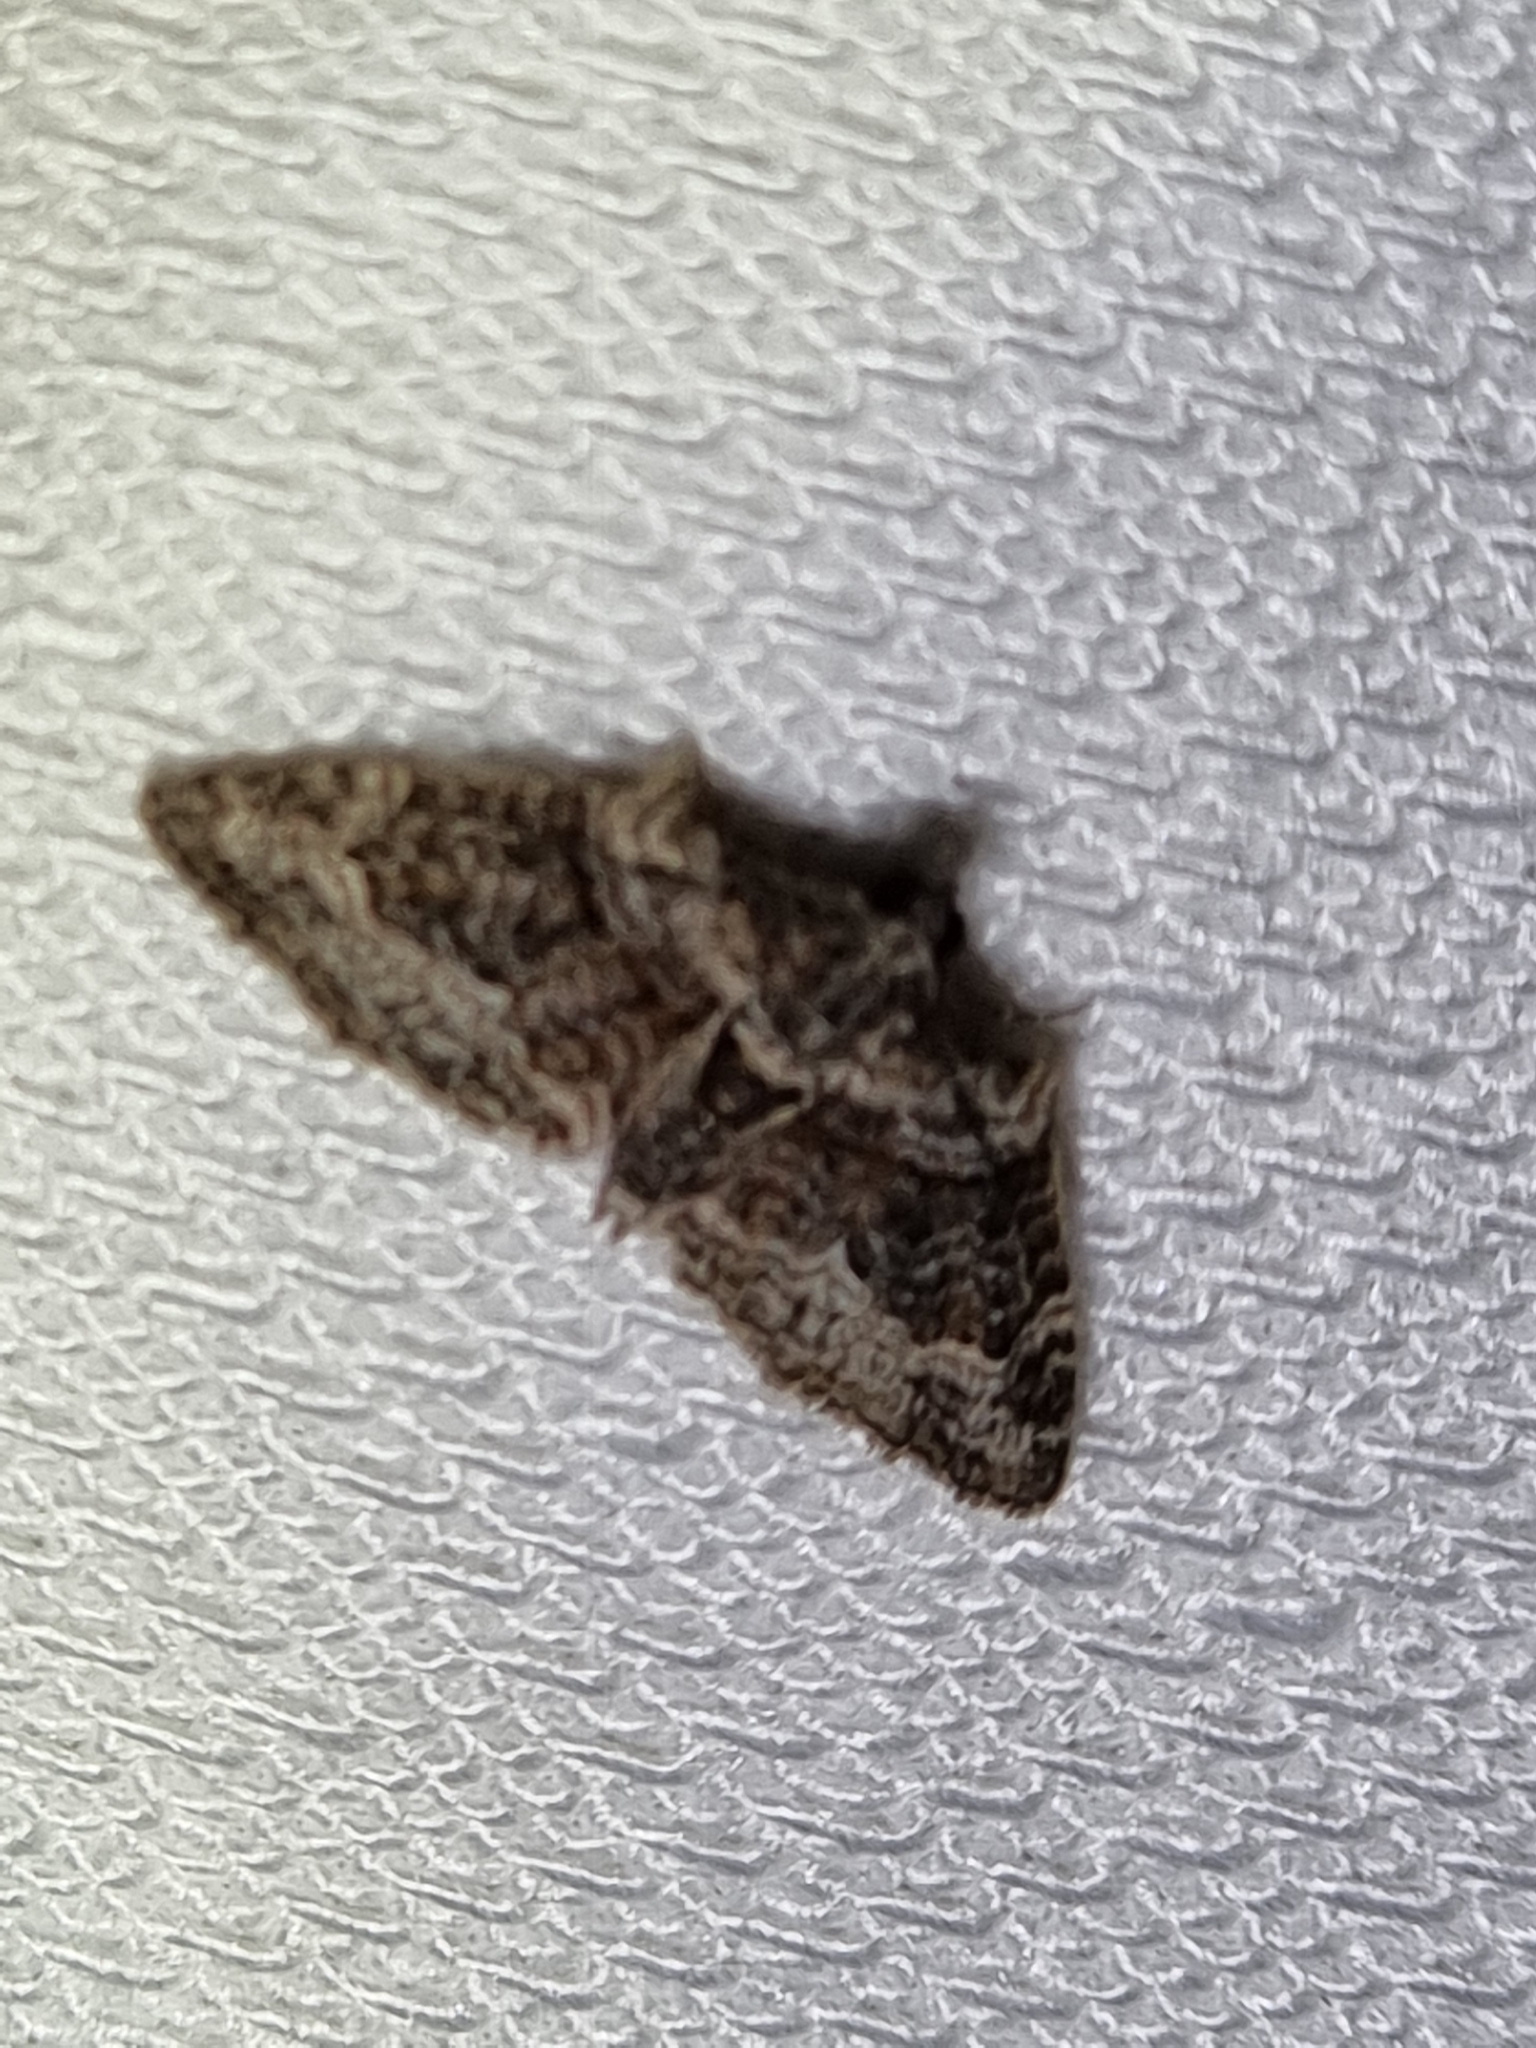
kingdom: Animalia
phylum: Arthropoda
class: Insecta
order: Lepidoptera
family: Geometridae
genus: Phrissogonus
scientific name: Phrissogonus laticostata
